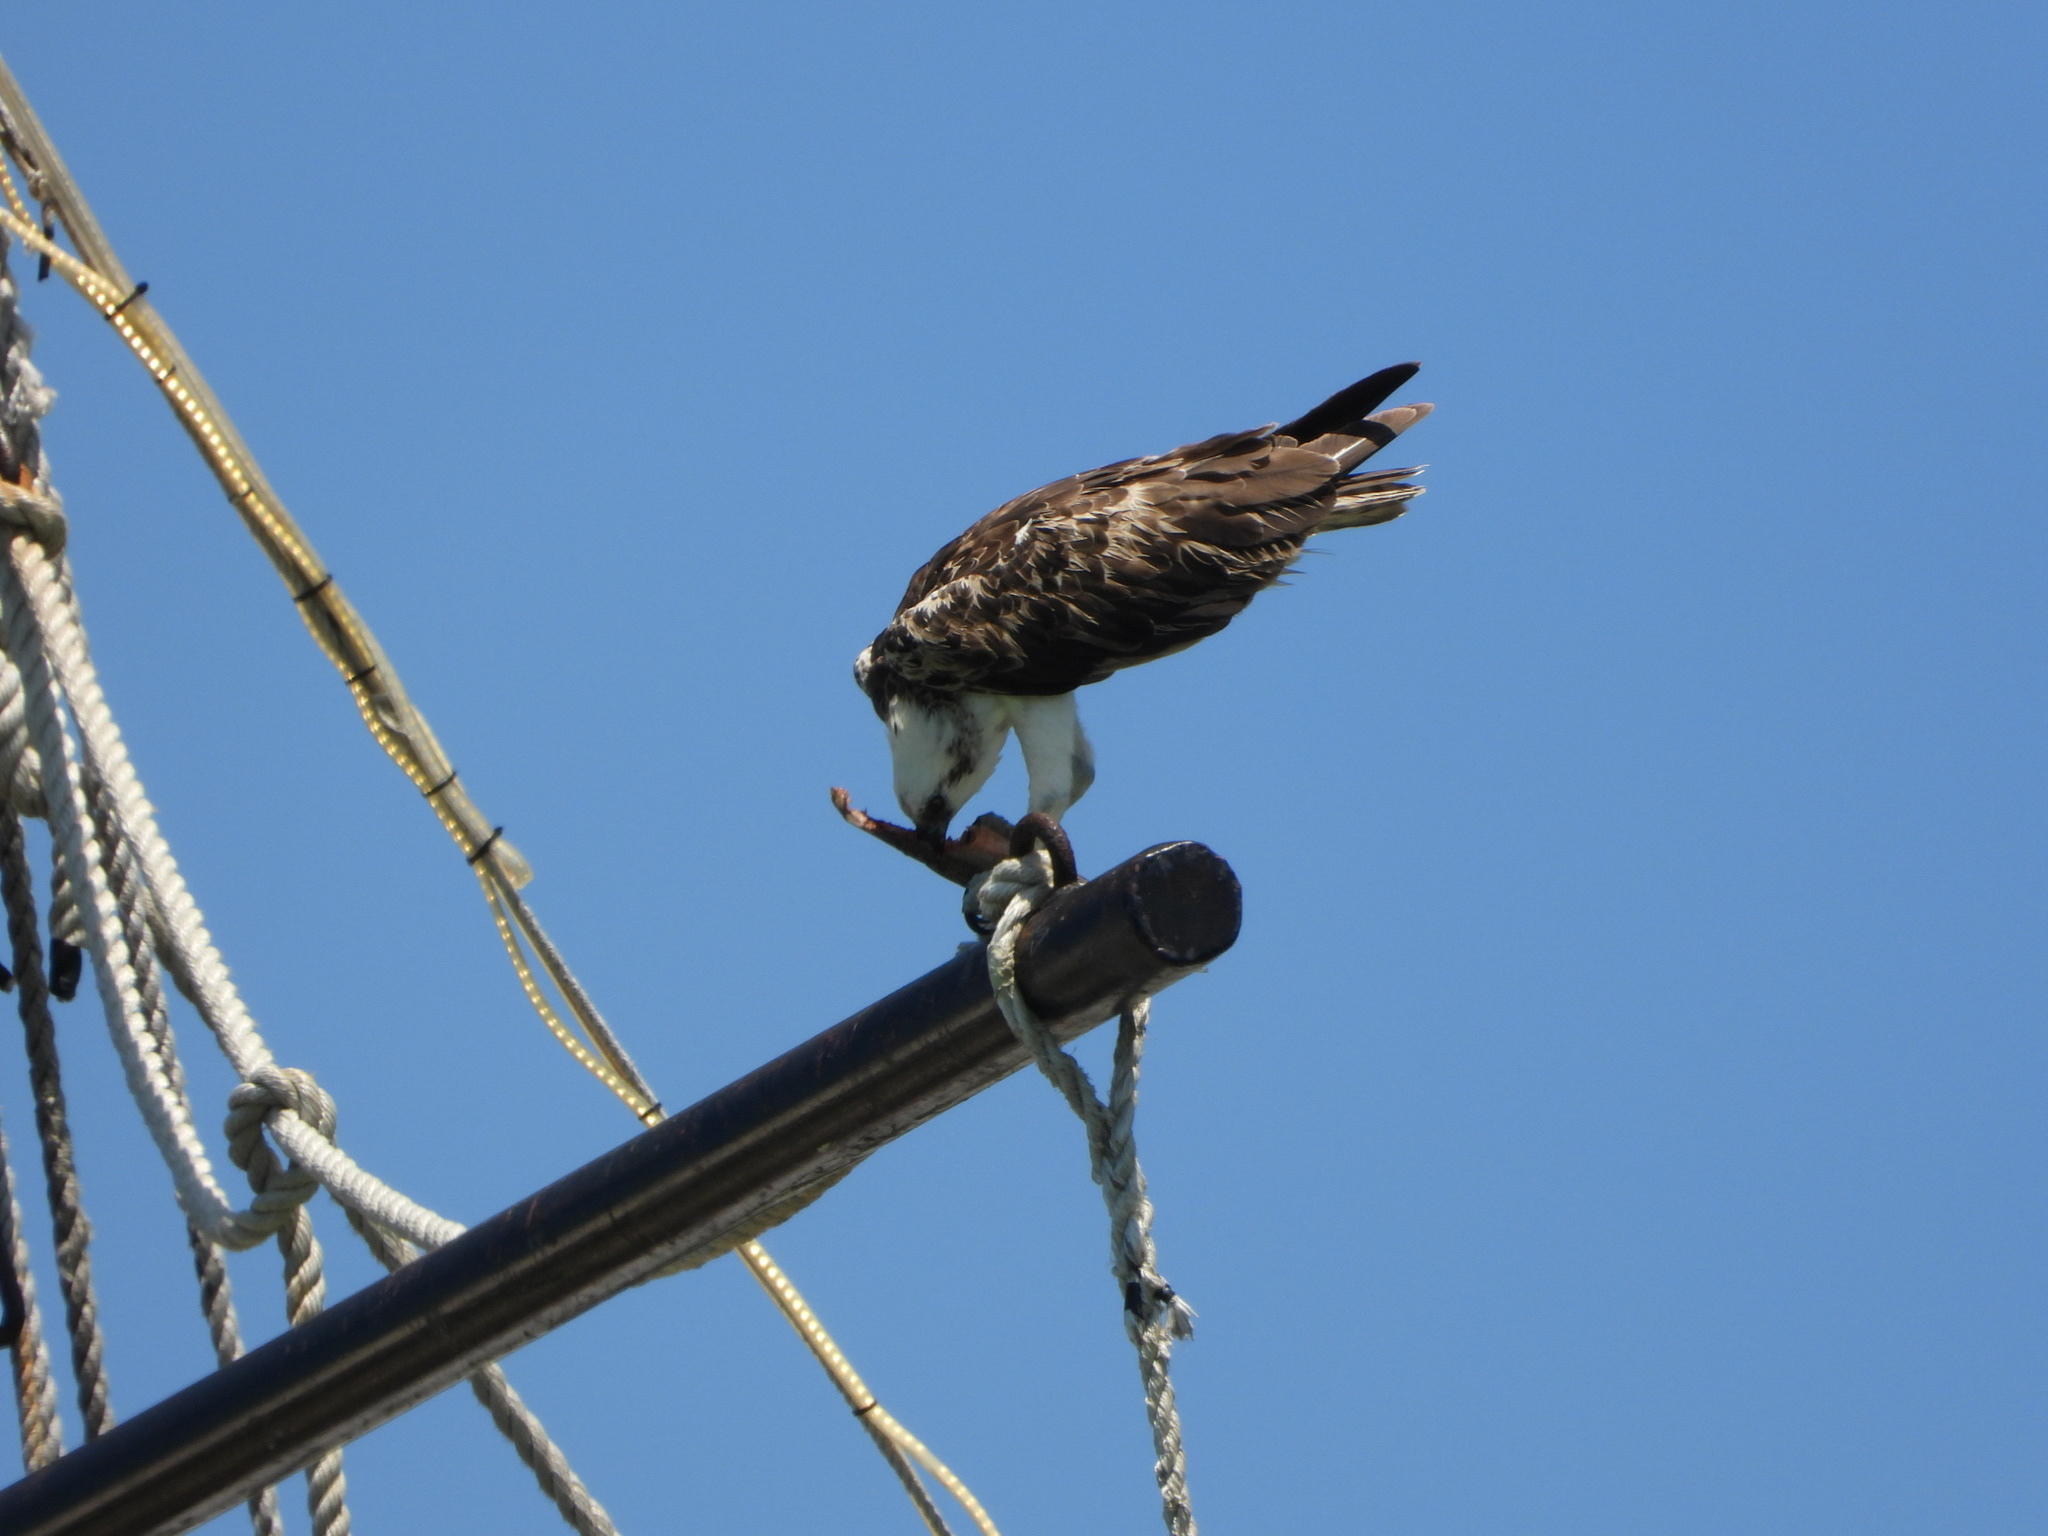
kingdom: Animalia
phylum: Chordata
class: Aves
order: Accipitriformes
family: Pandionidae
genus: Pandion
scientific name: Pandion haliaetus
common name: Osprey
